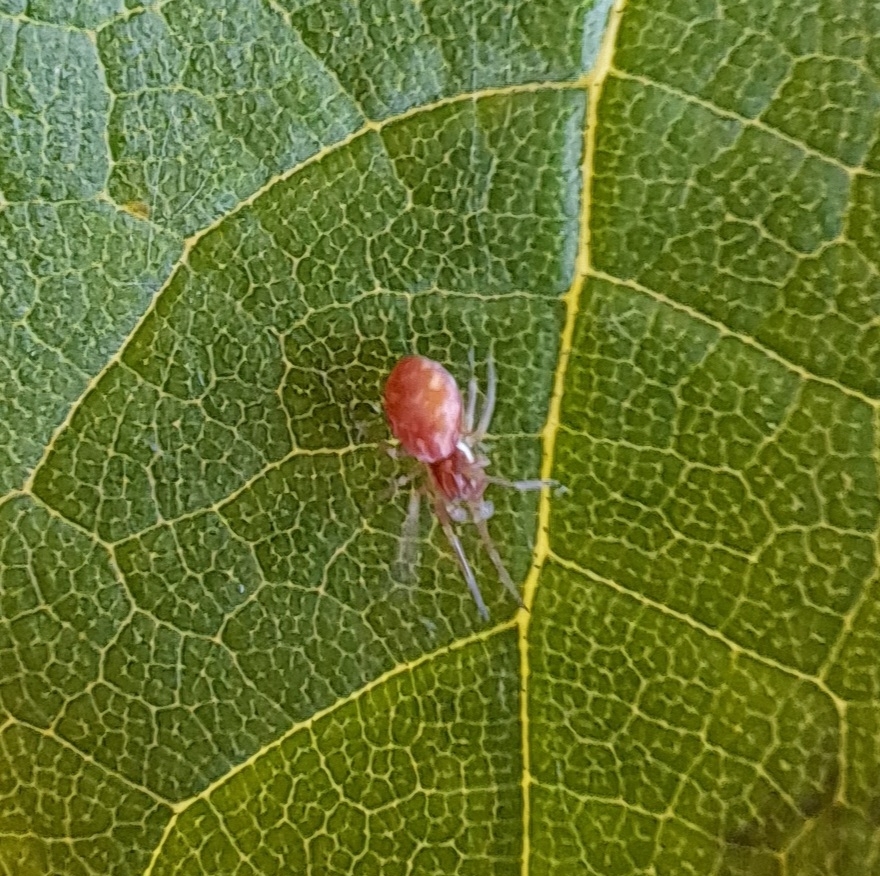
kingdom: Animalia
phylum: Arthropoda
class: Arachnida
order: Araneae
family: Dictynidae
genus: Nigma
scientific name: Nigma flavescens
